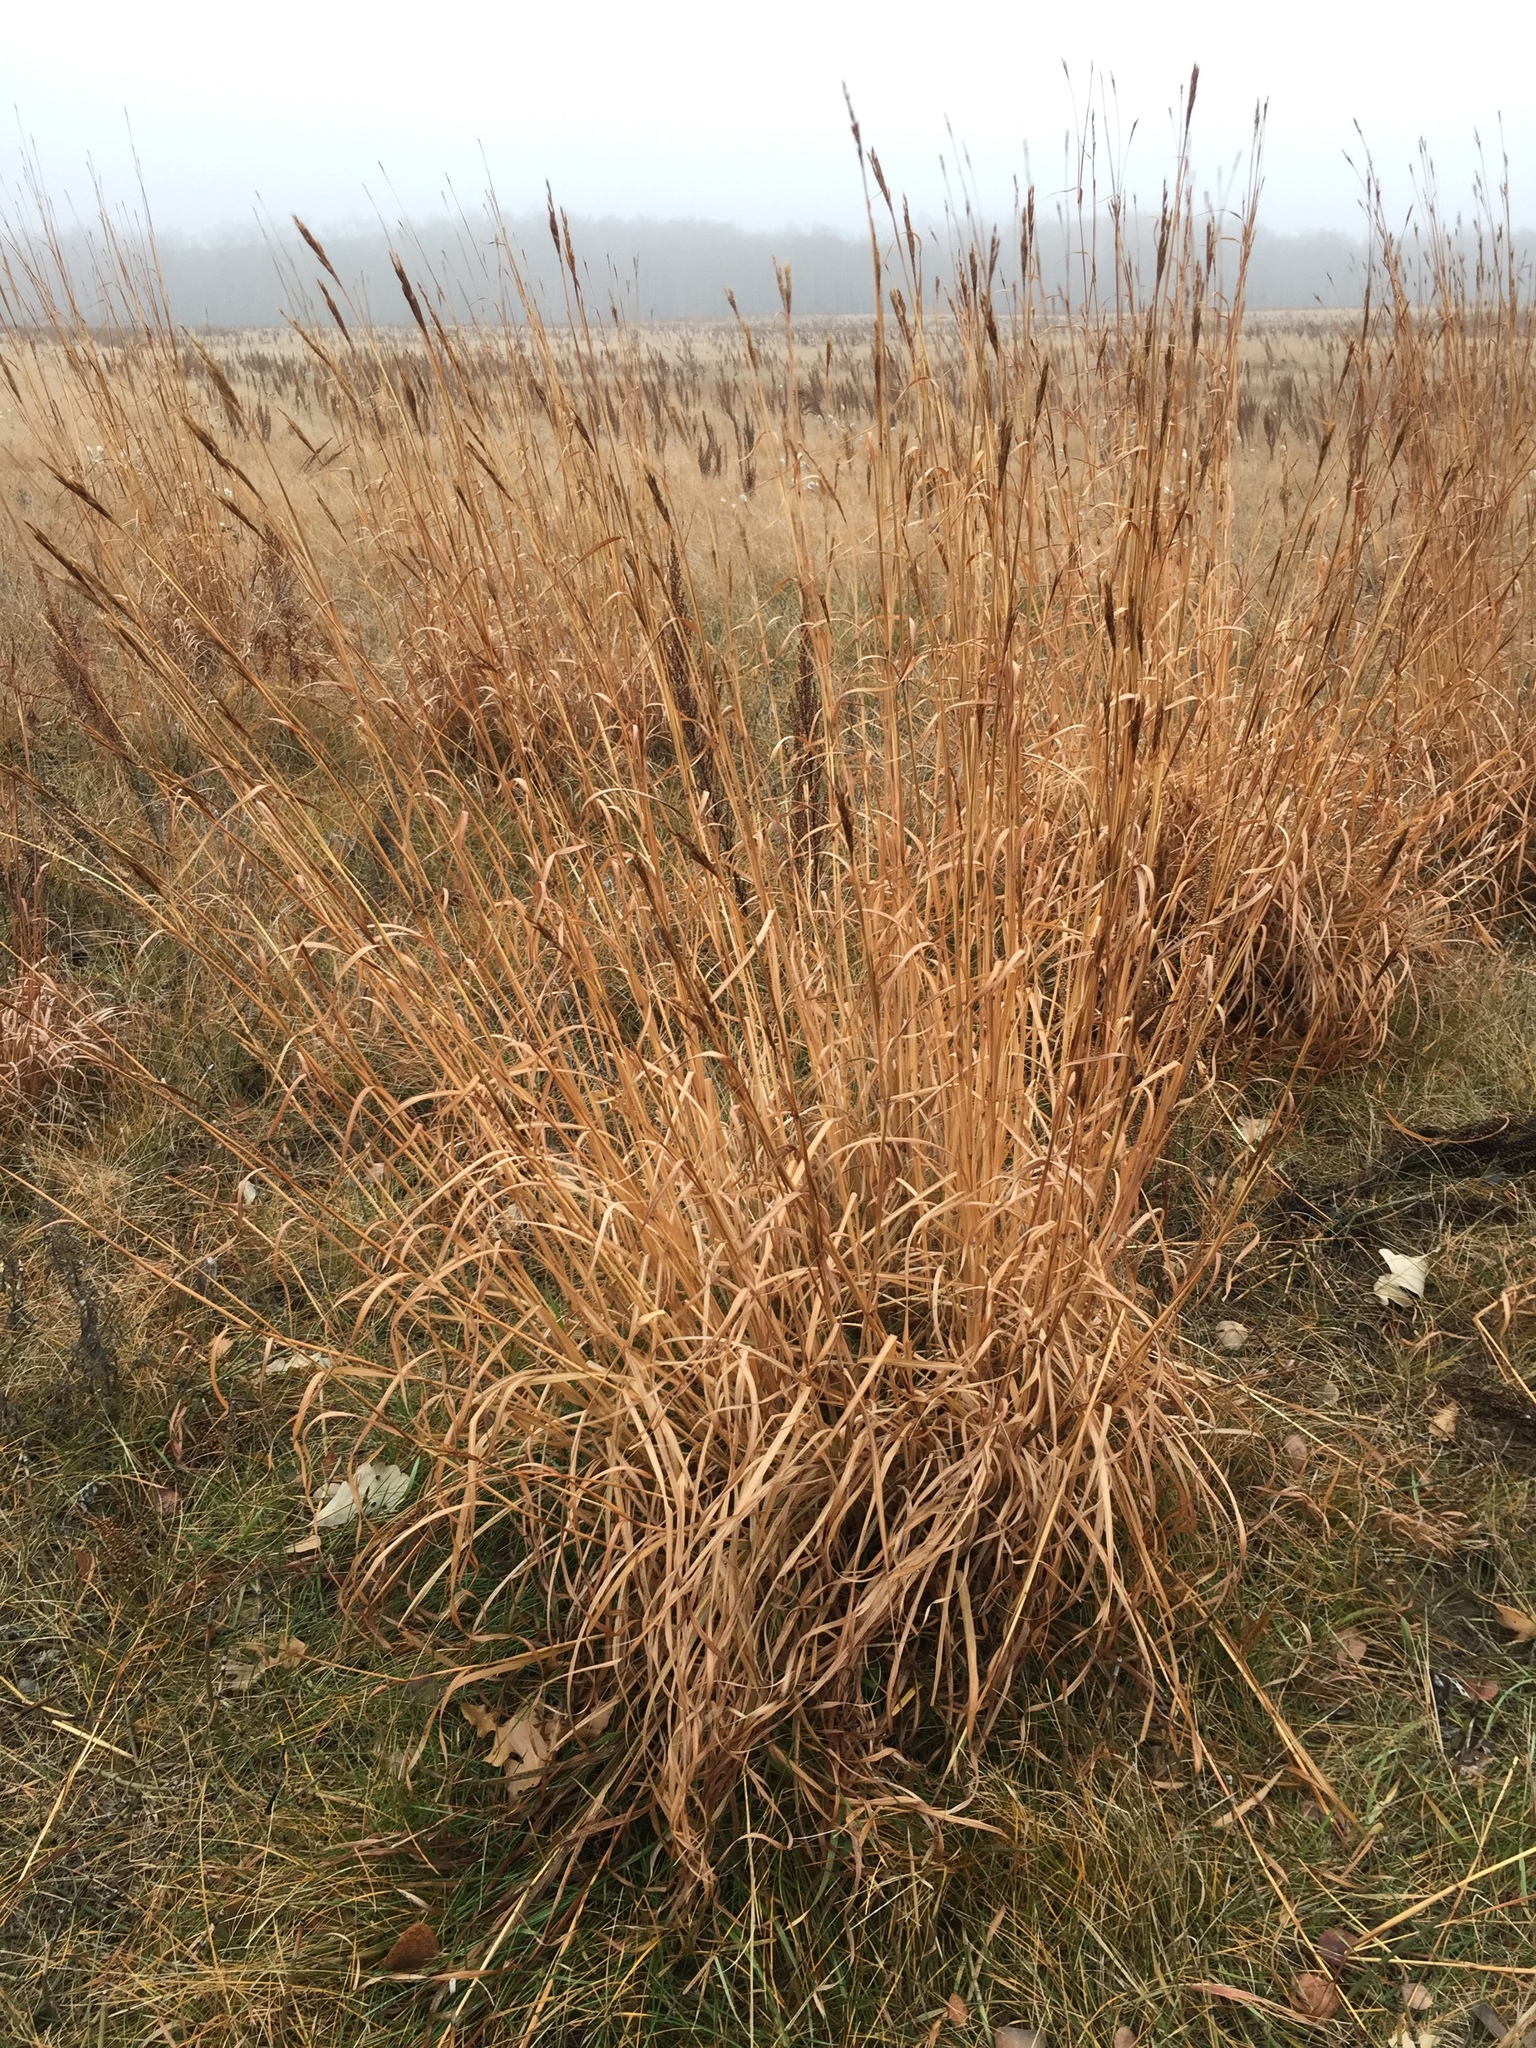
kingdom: Plantae
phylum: Tracheophyta
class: Liliopsida
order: Poales
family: Poaceae
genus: Andropogon
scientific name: Andropogon gerardi
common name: Big bluestem
